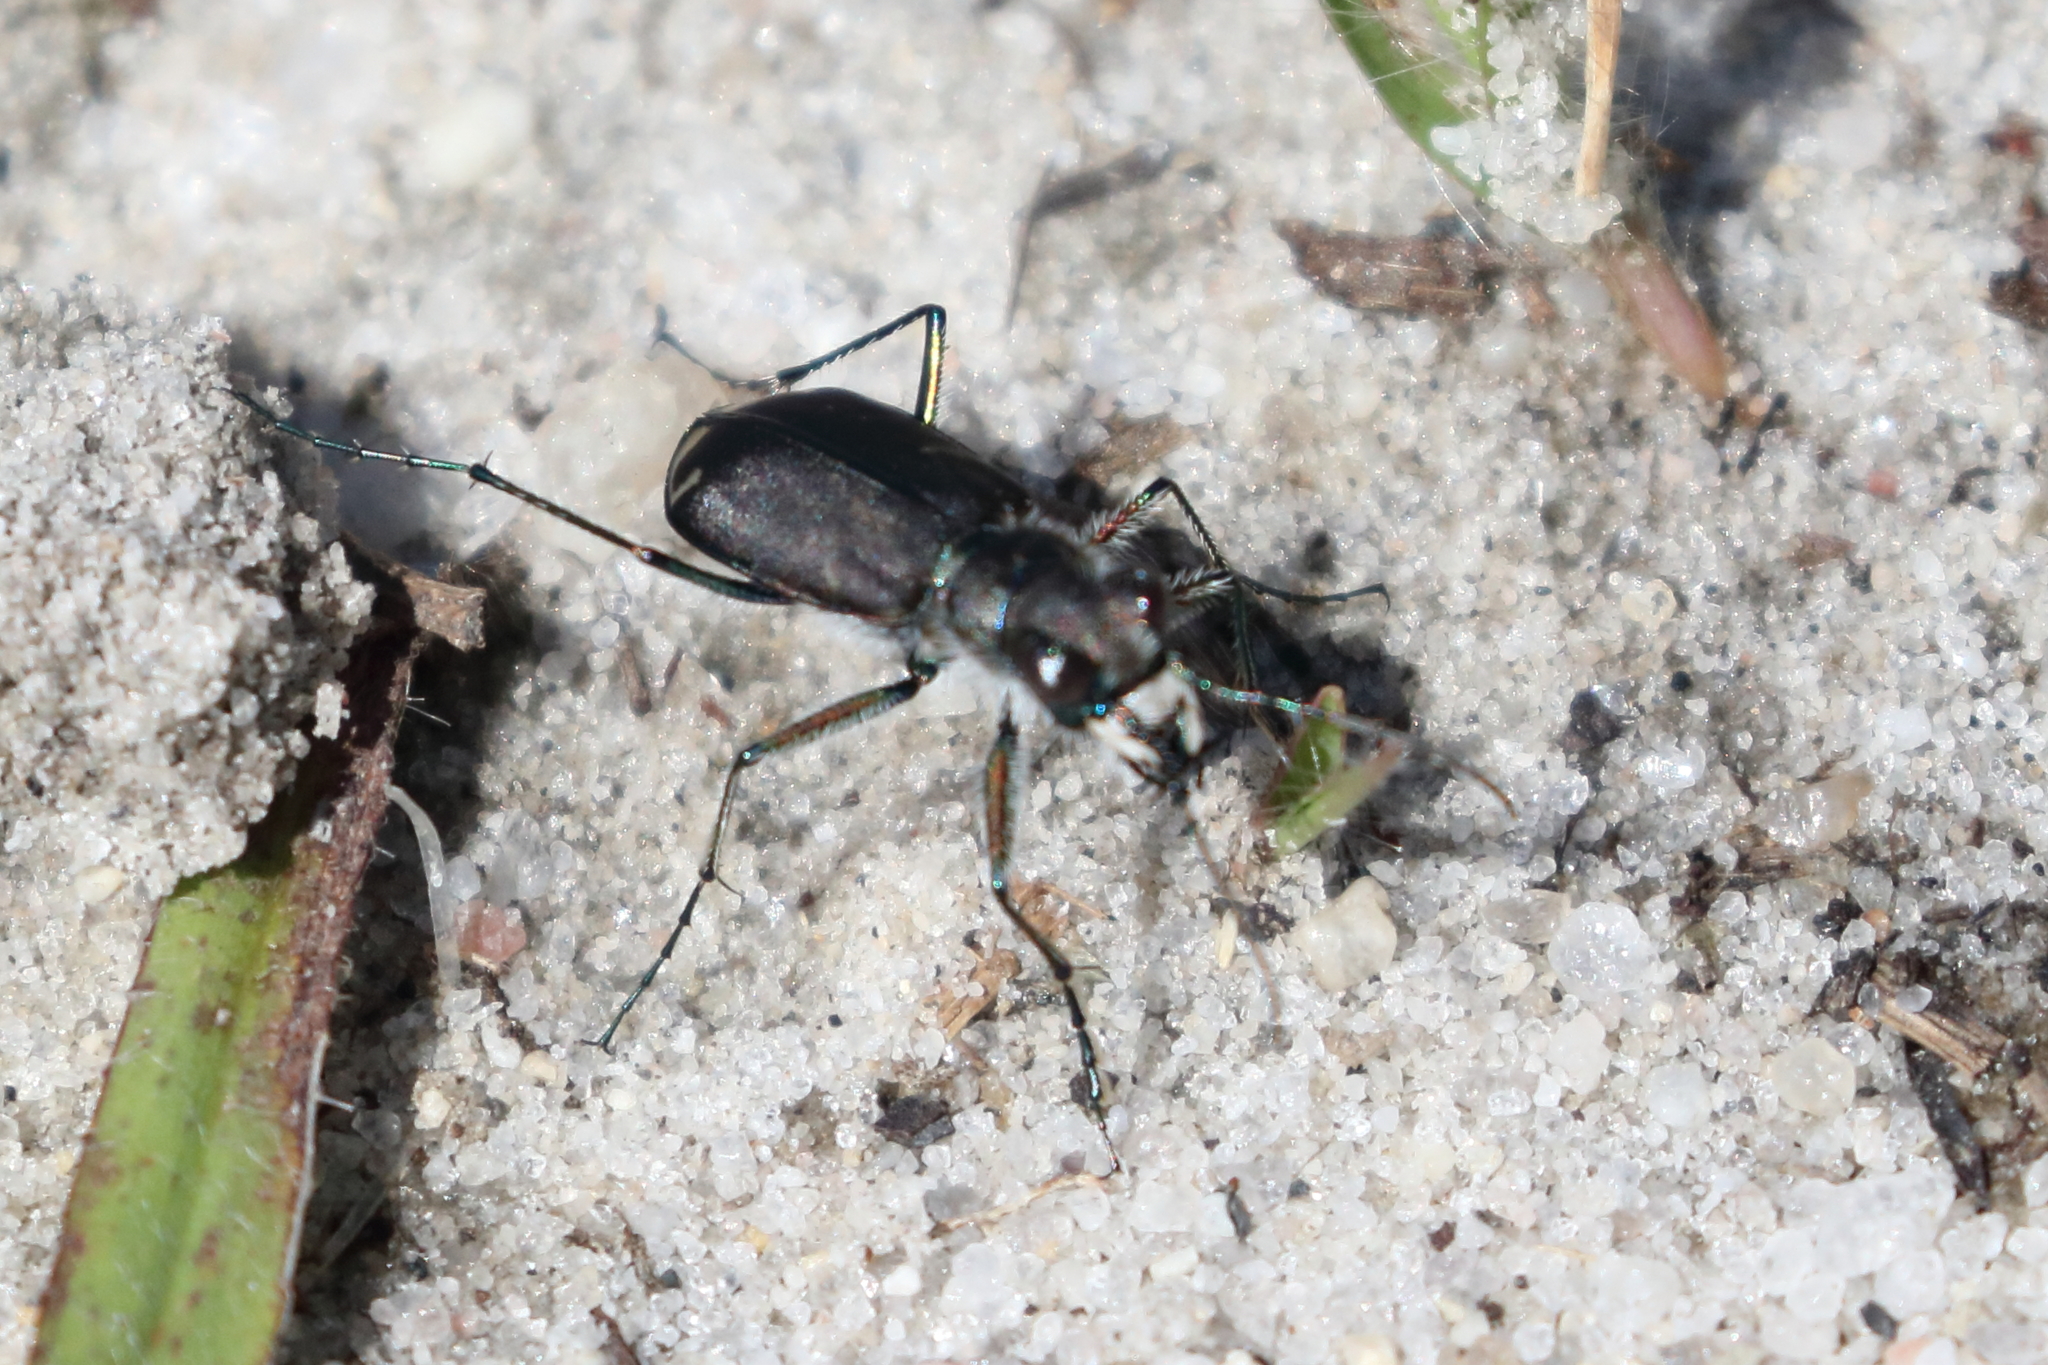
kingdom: Animalia
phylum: Arthropoda
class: Insecta
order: Coleoptera
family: Carabidae
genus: Cicindela
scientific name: Cicindela tranquebarica
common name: Oblique-lined tiger beetle
